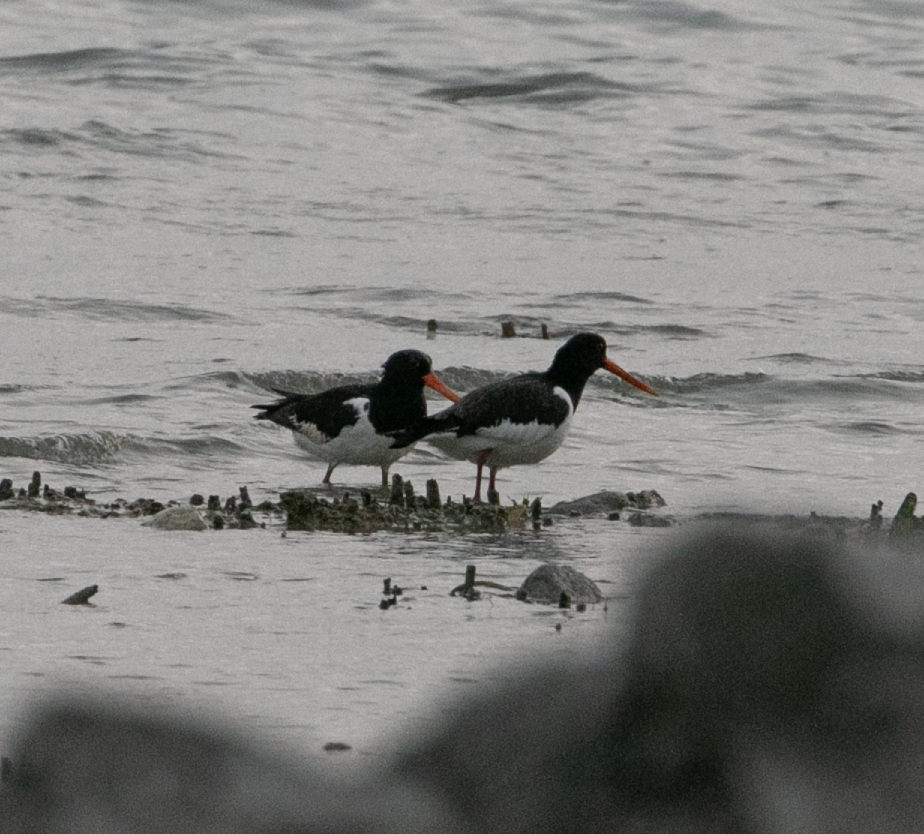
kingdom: Animalia
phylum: Chordata
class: Aves
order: Charadriiformes
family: Haematopodidae
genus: Haematopus
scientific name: Haematopus ostralegus
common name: Eurasian oystercatcher
